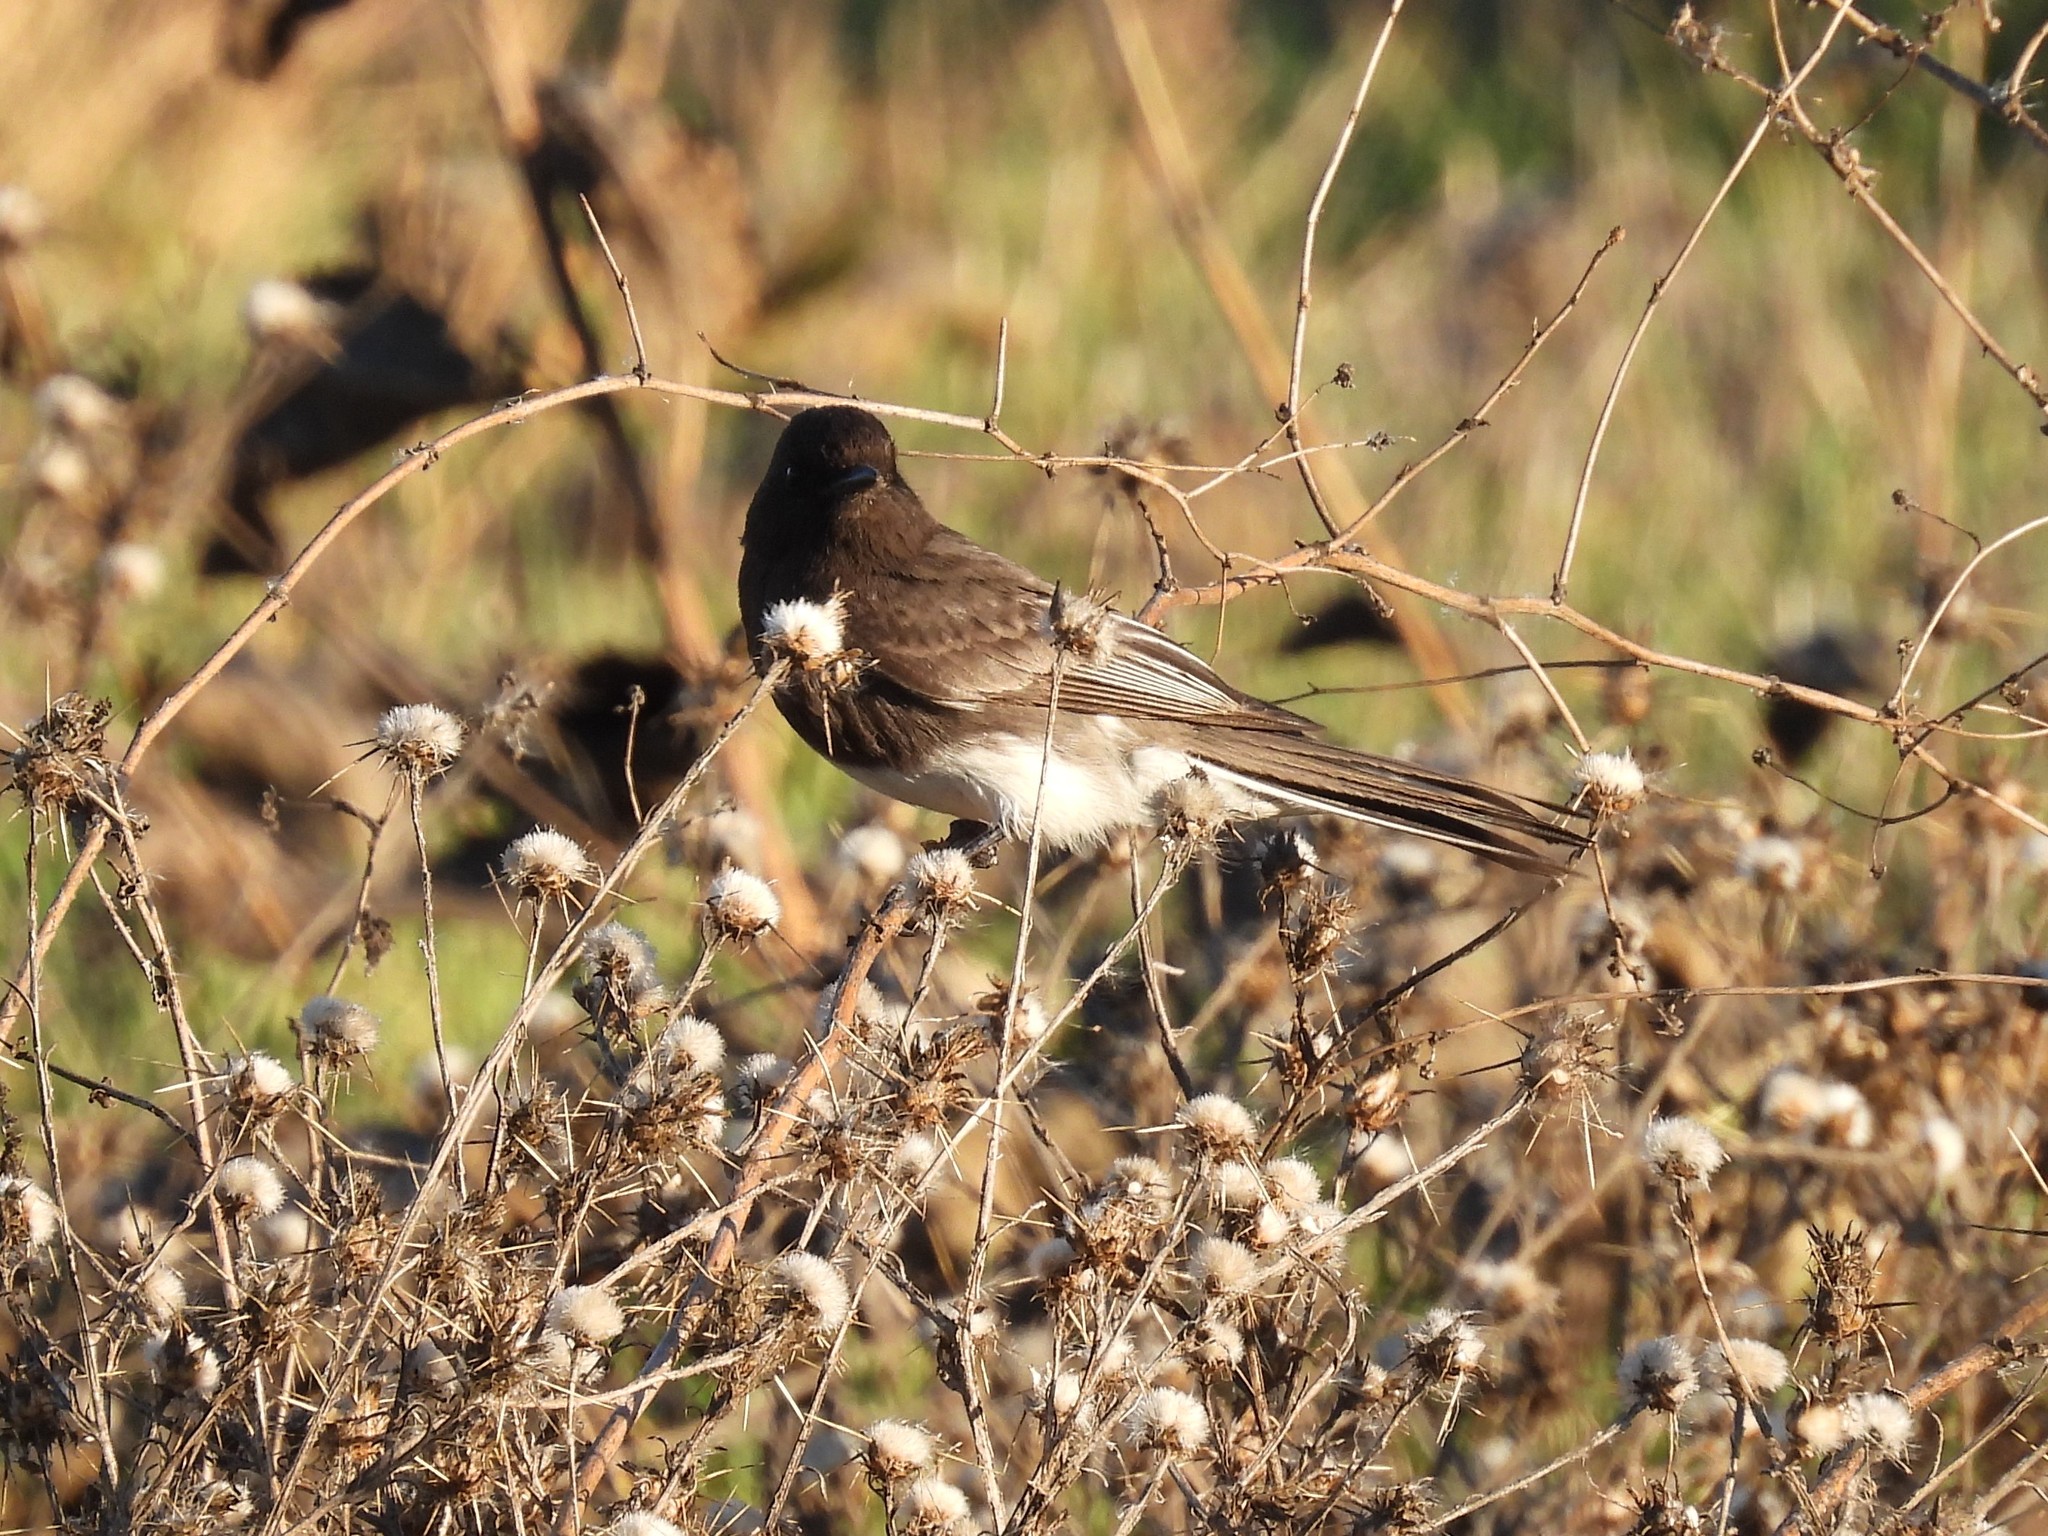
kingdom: Animalia
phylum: Chordata
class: Aves
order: Passeriformes
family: Tyrannidae
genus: Sayornis
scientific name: Sayornis nigricans
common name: Black phoebe
